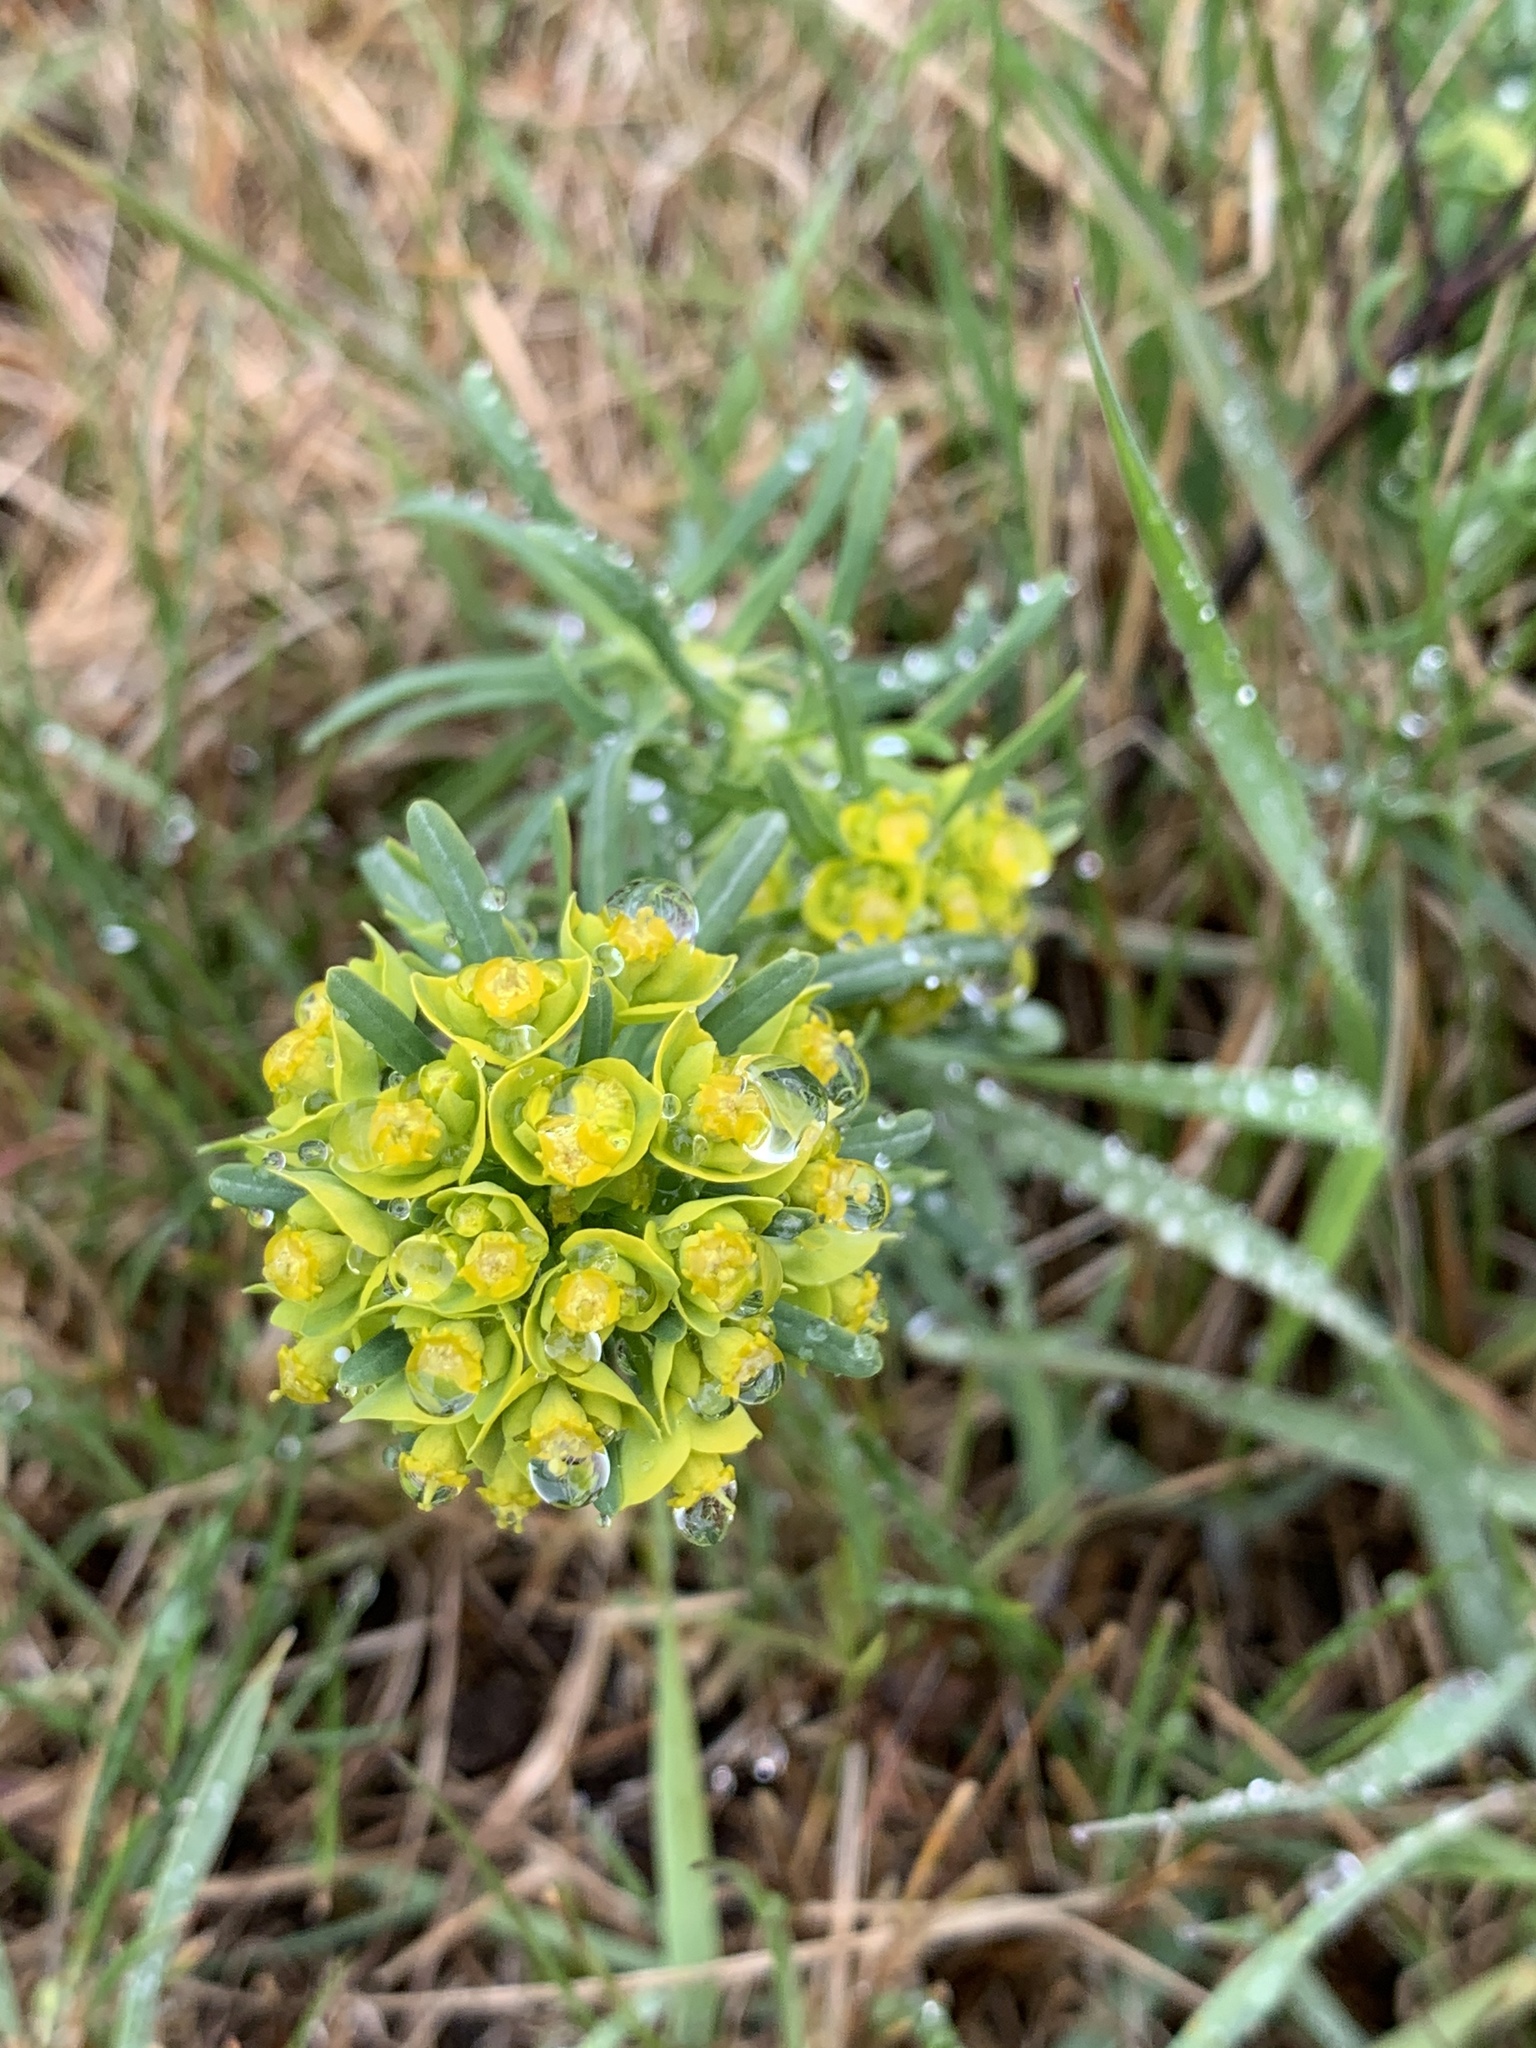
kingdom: Plantae
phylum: Tracheophyta
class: Magnoliopsida
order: Malpighiales
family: Euphorbiaceae
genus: Euphorbia
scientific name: Euphorbia cyparissias
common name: Cypress spurge
